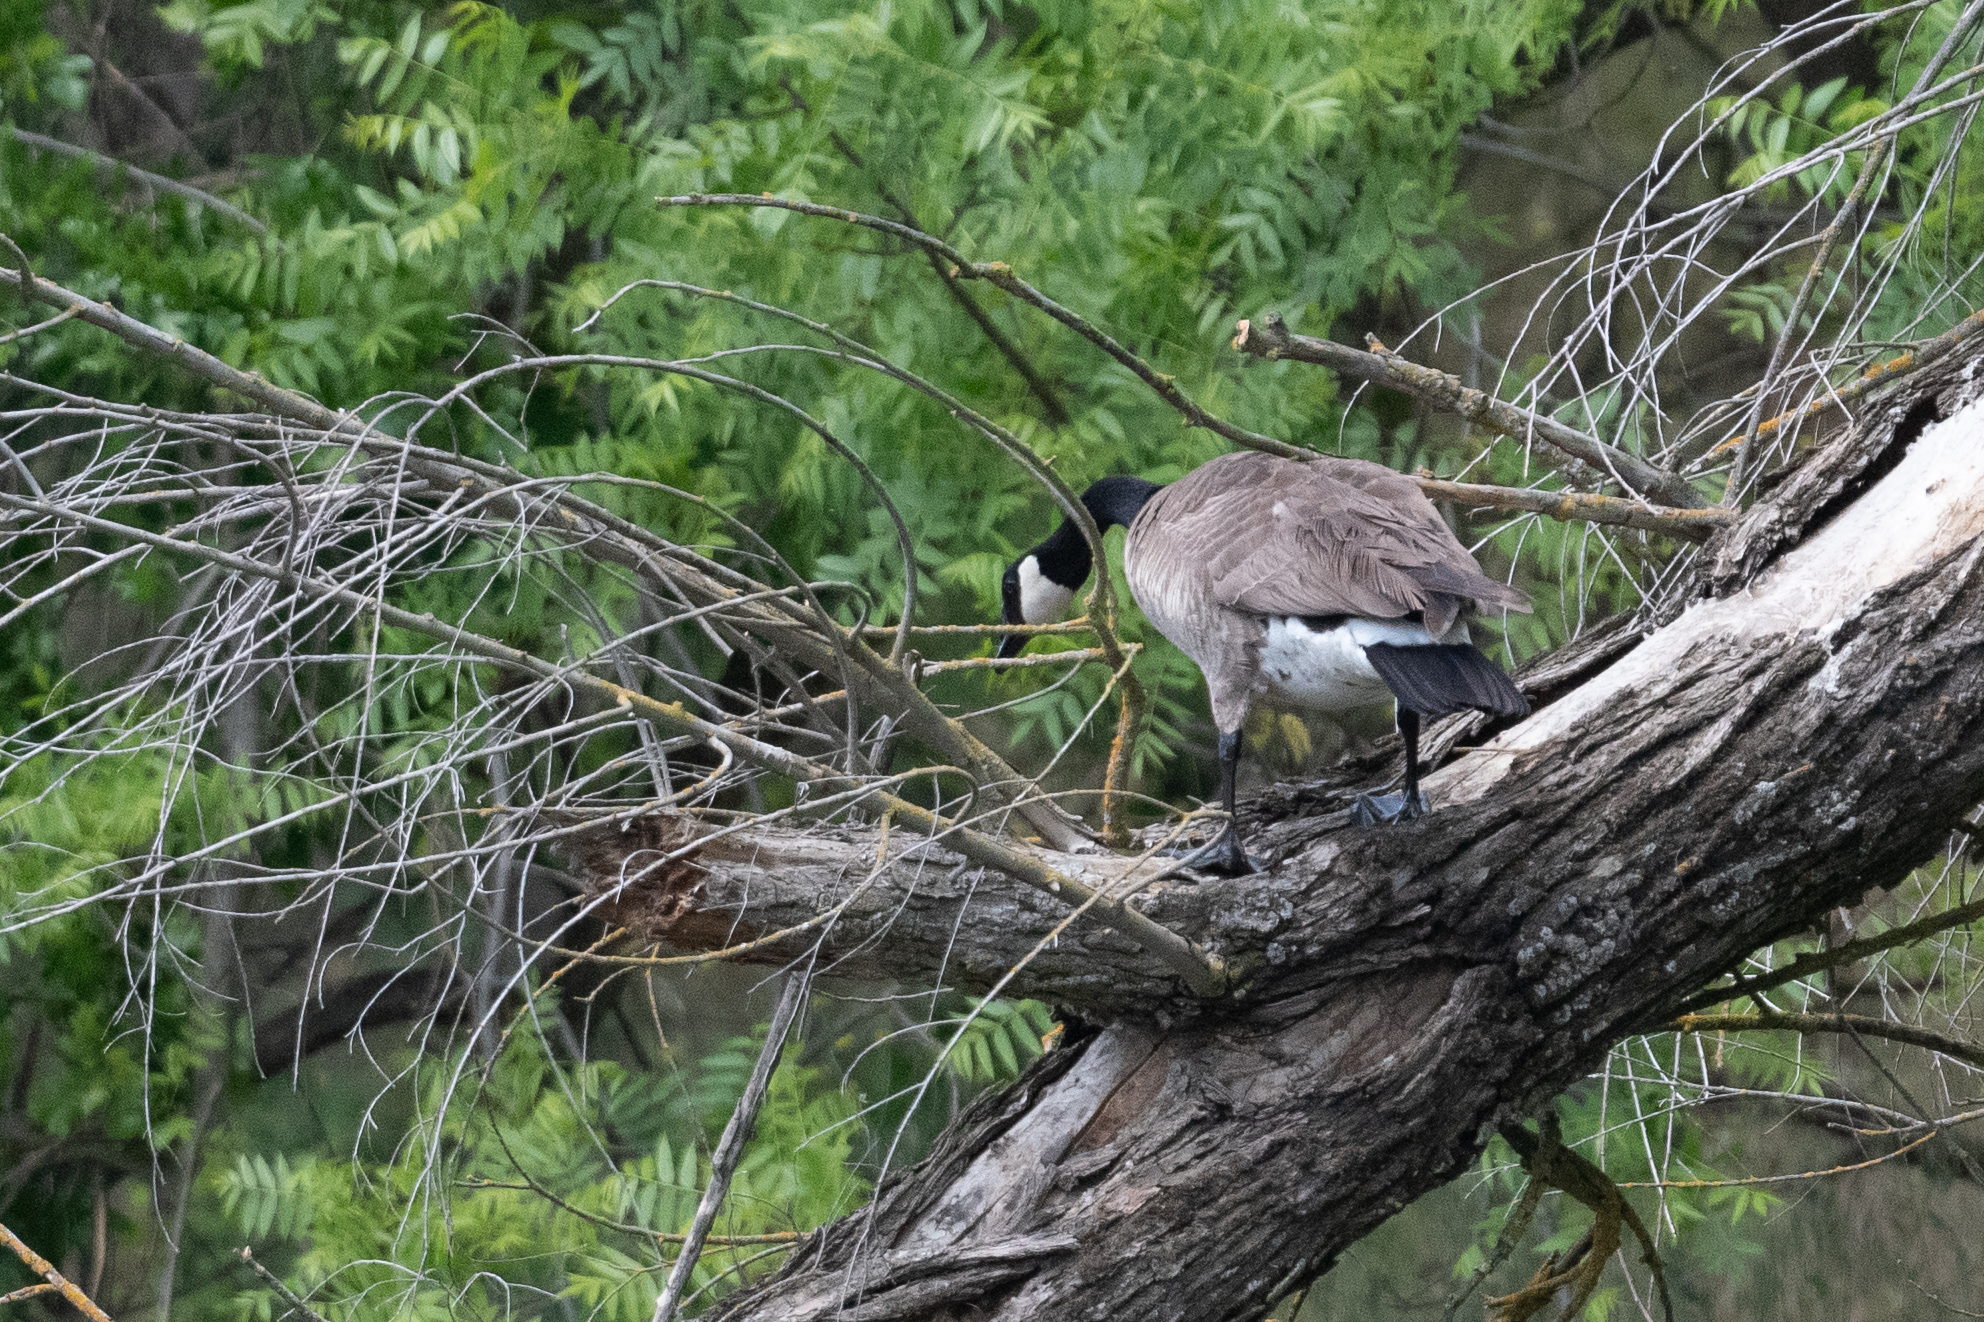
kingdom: Animalia
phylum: Chordata
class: Aves
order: Anseriformes
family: Anatidae
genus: Branta
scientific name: Branta canadensis
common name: Canada goose
